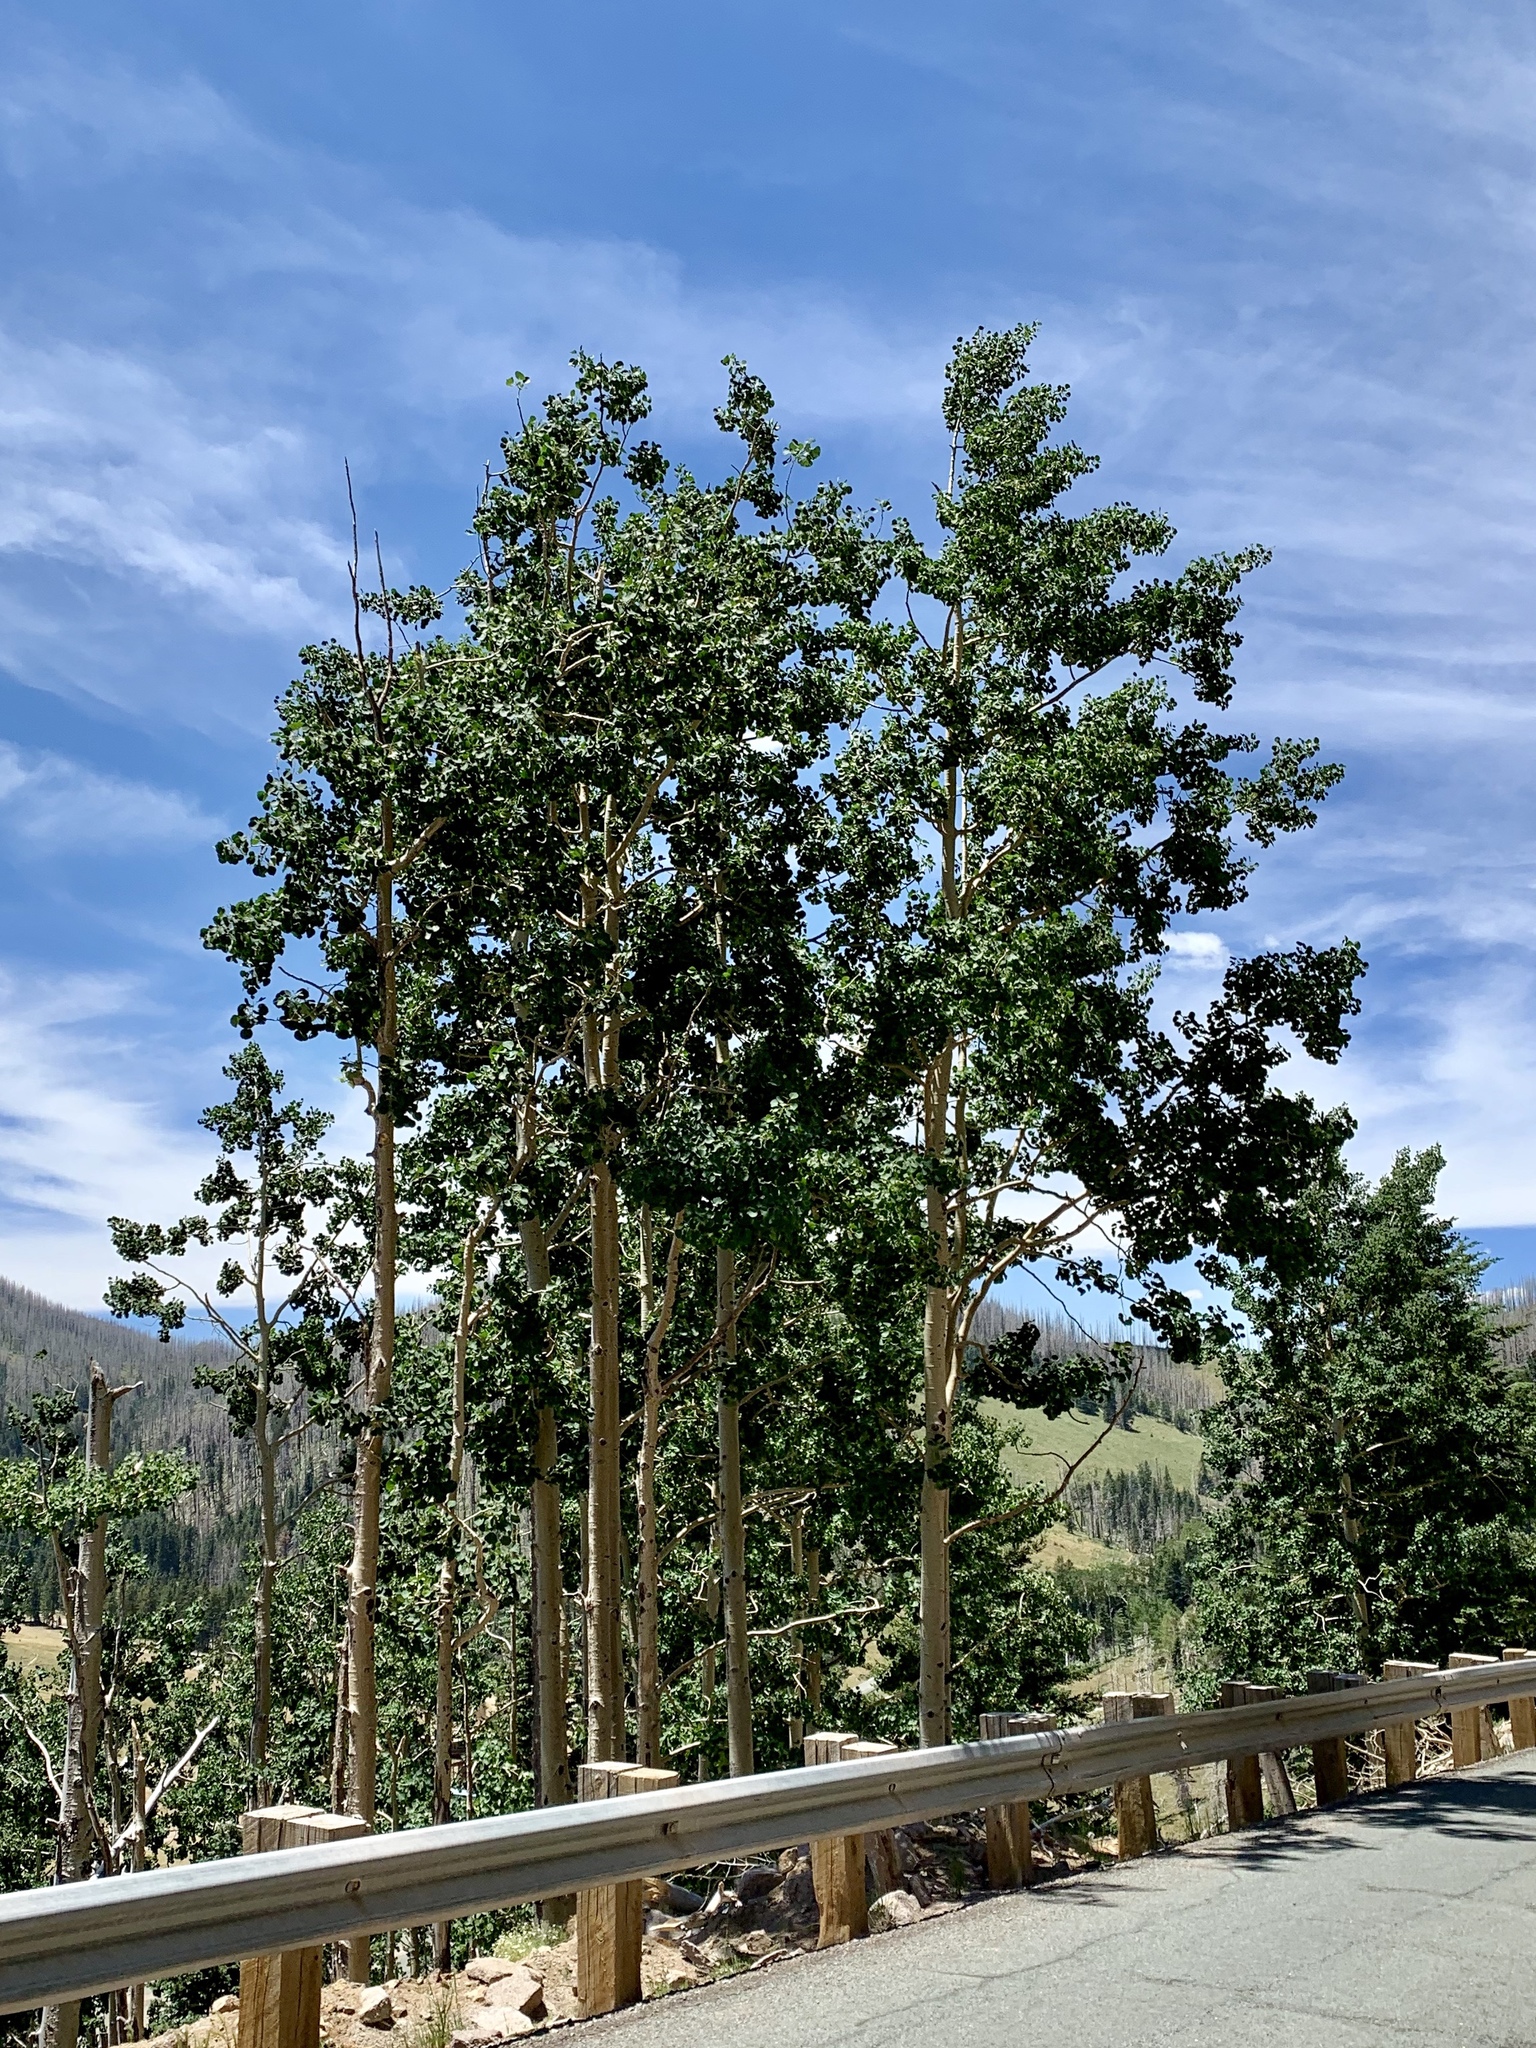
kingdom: Plantae
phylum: Tracheophyta
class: Magnoliopsida
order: Malpighiales
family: Salicaceae
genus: Populus
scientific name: Populus tremuloides
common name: Quaking aspen
